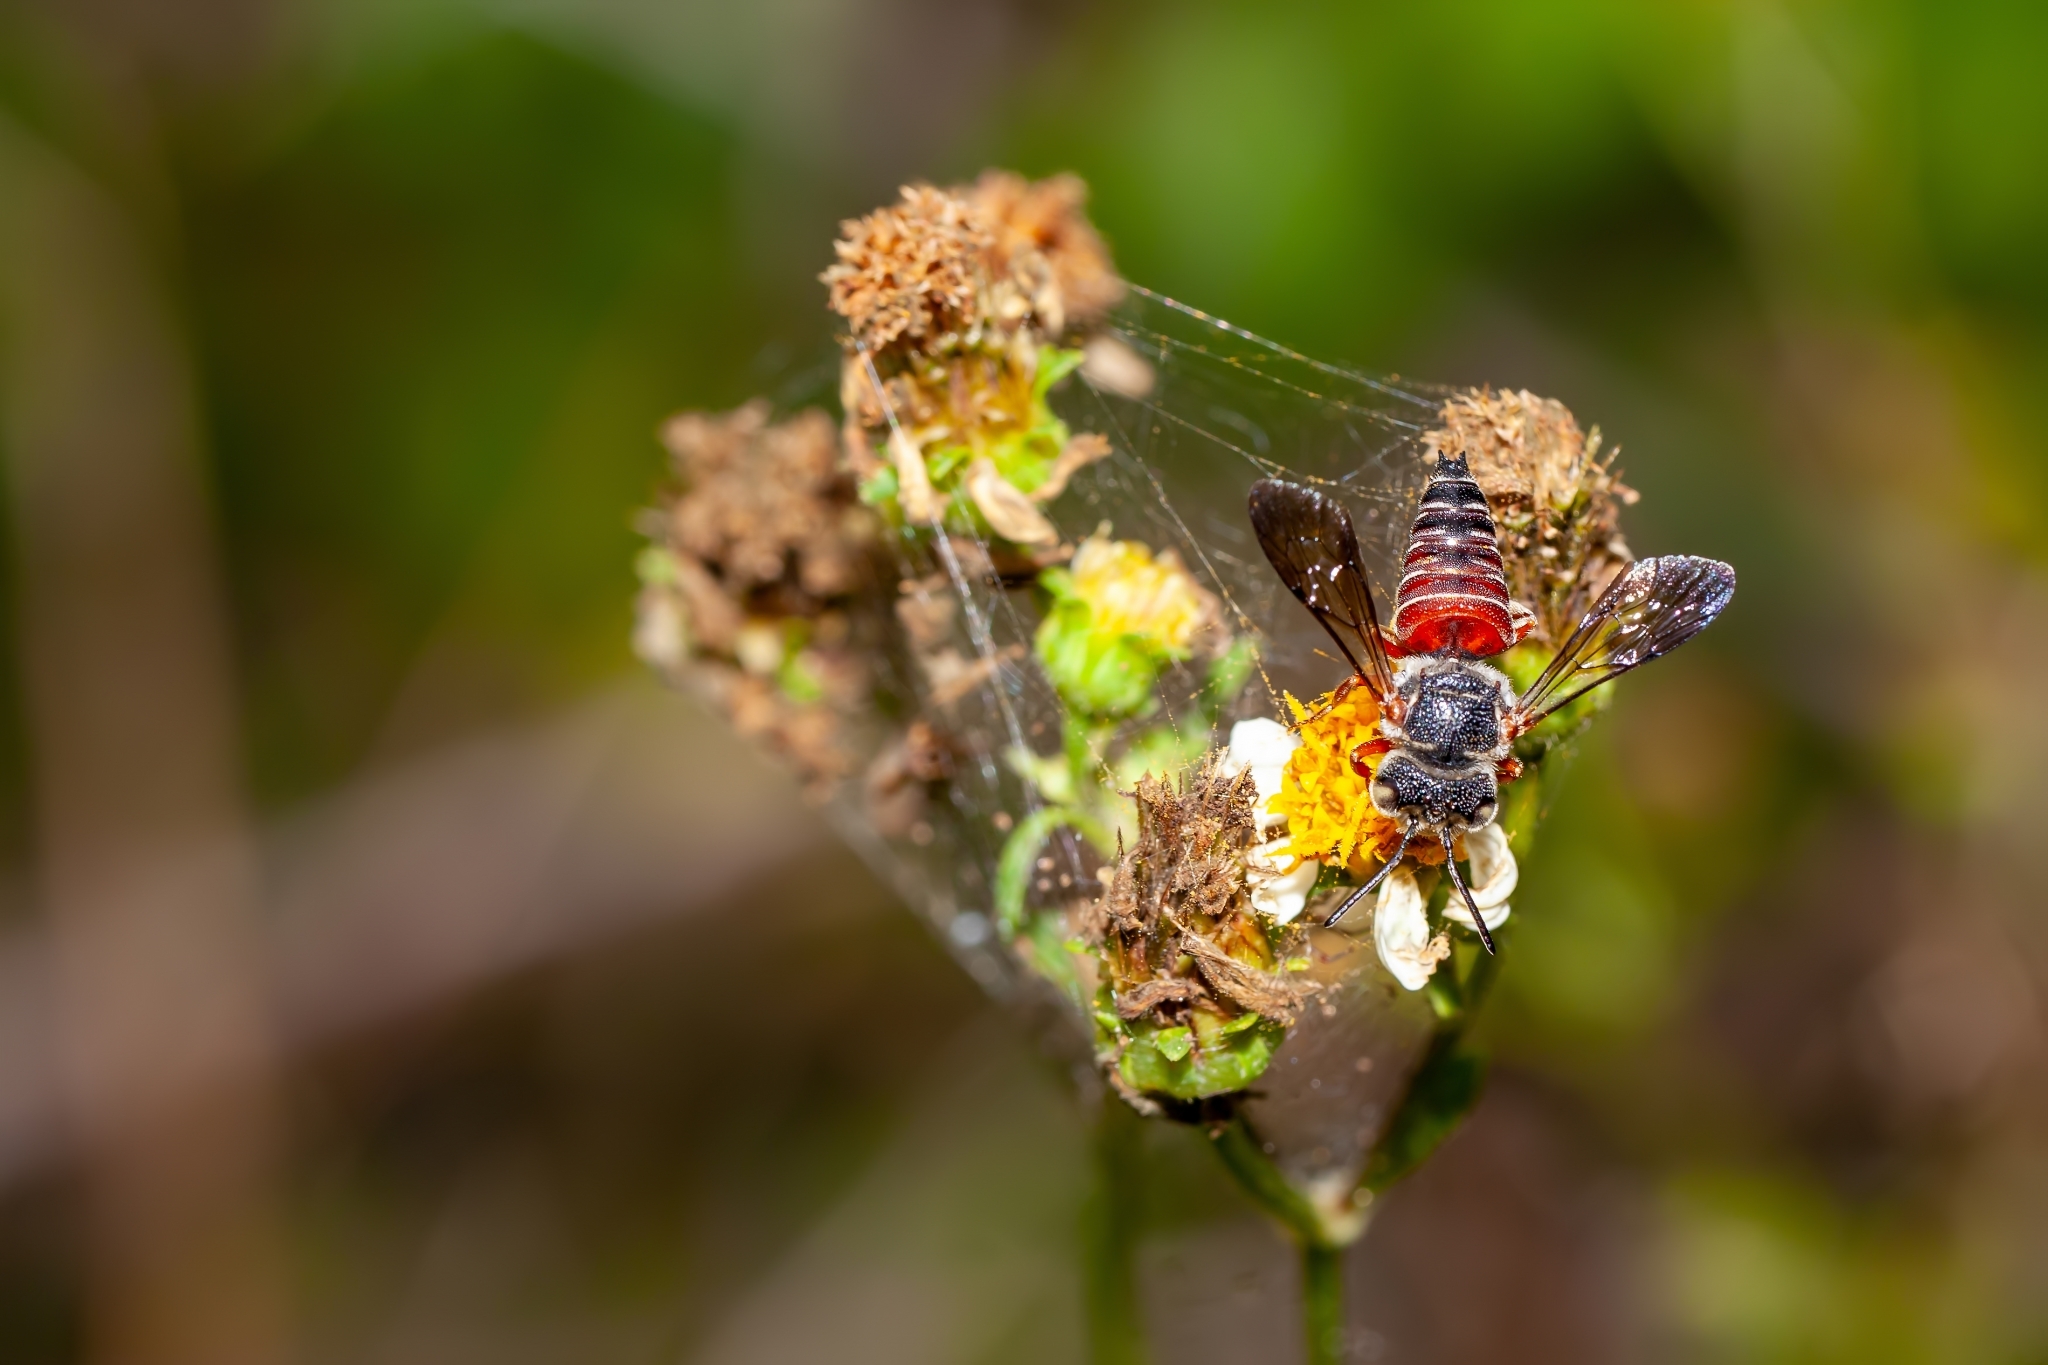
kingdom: Animalia
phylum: Arthropoda
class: Insecta
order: Hymenoptera
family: Megachilidae
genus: Coelioxys
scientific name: Coelioxys slossoni
